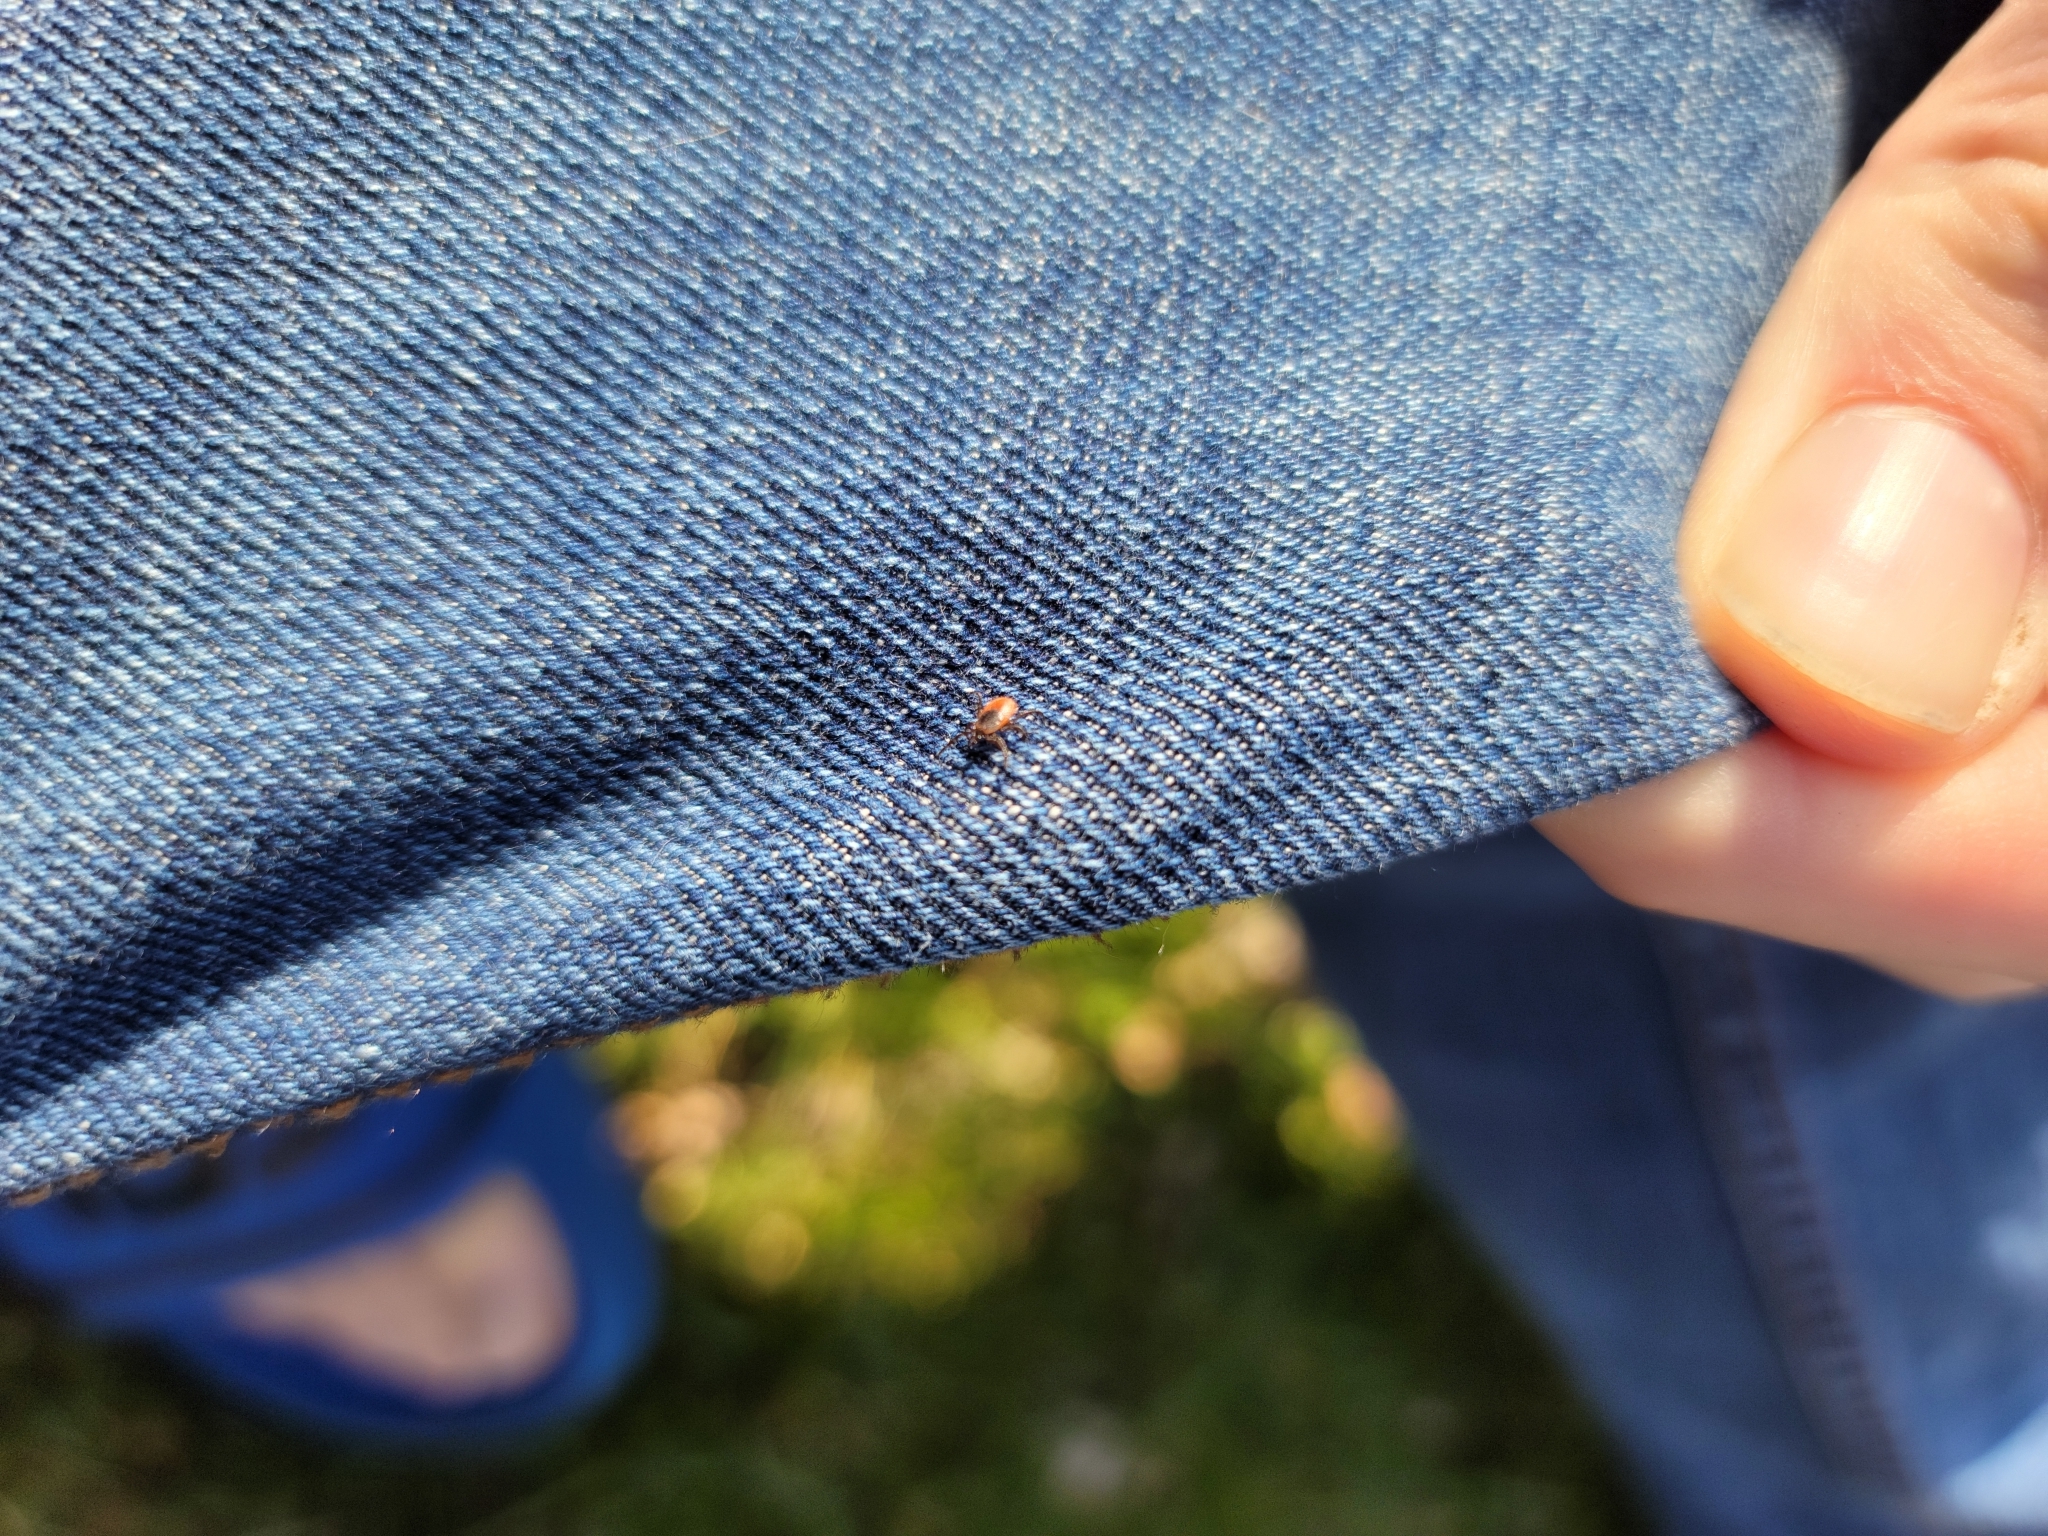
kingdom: Animalia
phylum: Arthropoda
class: Arachnida
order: Ixodida
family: Ixodidae
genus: Ixodes
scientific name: Ixodes scapularis
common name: Black legged tick
